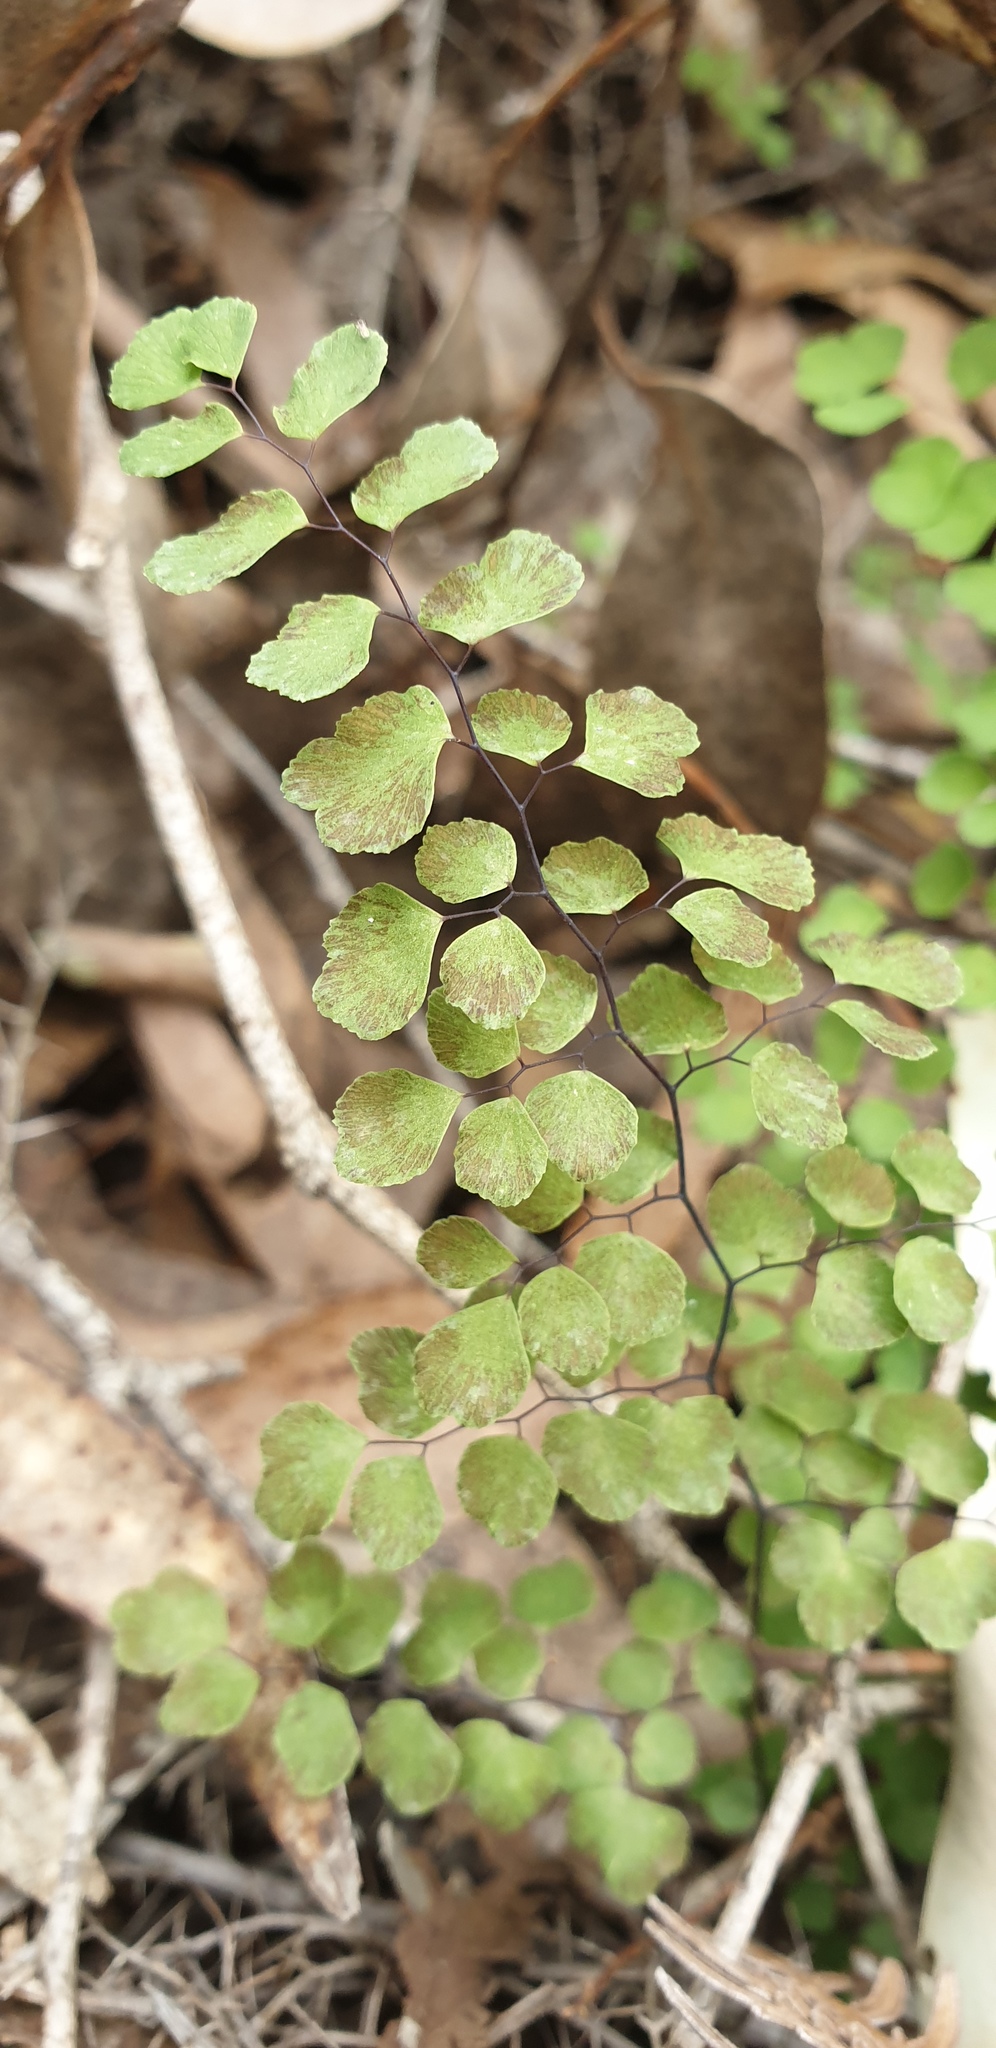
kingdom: Plantae
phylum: Tracheophyta
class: Polypodiopsida
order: Polypodiales
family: Pteridaceae
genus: Adiantum
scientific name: Adiantum aethiopicum
